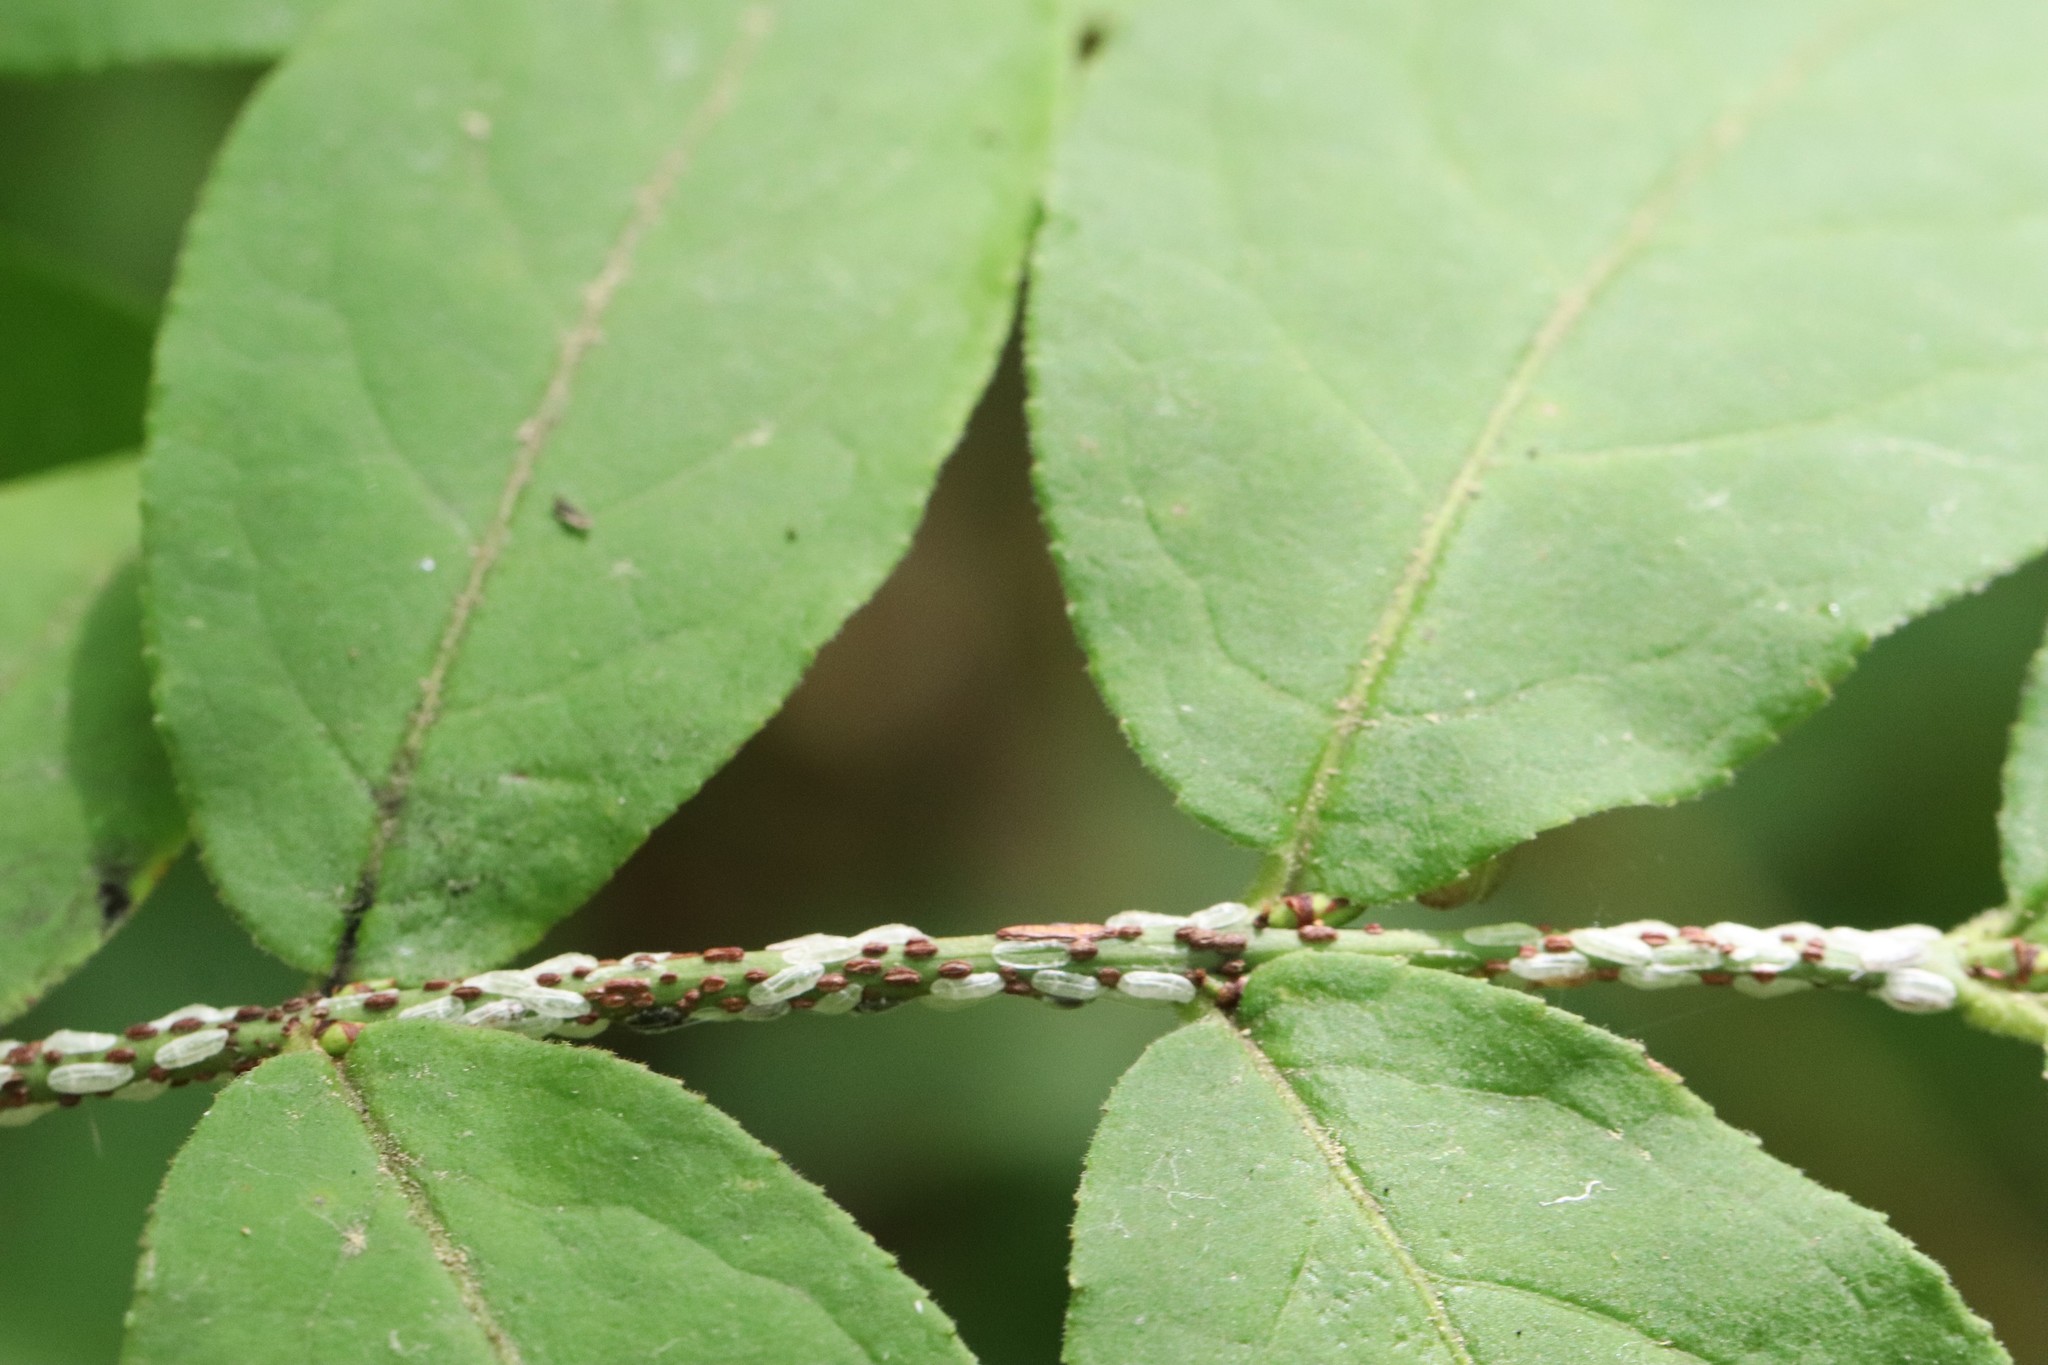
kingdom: Plantae
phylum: Tracheophyta
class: Magnoliopsida
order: Celastrales
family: Celastraceae
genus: Euonymus
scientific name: Euonymus verrucosus
